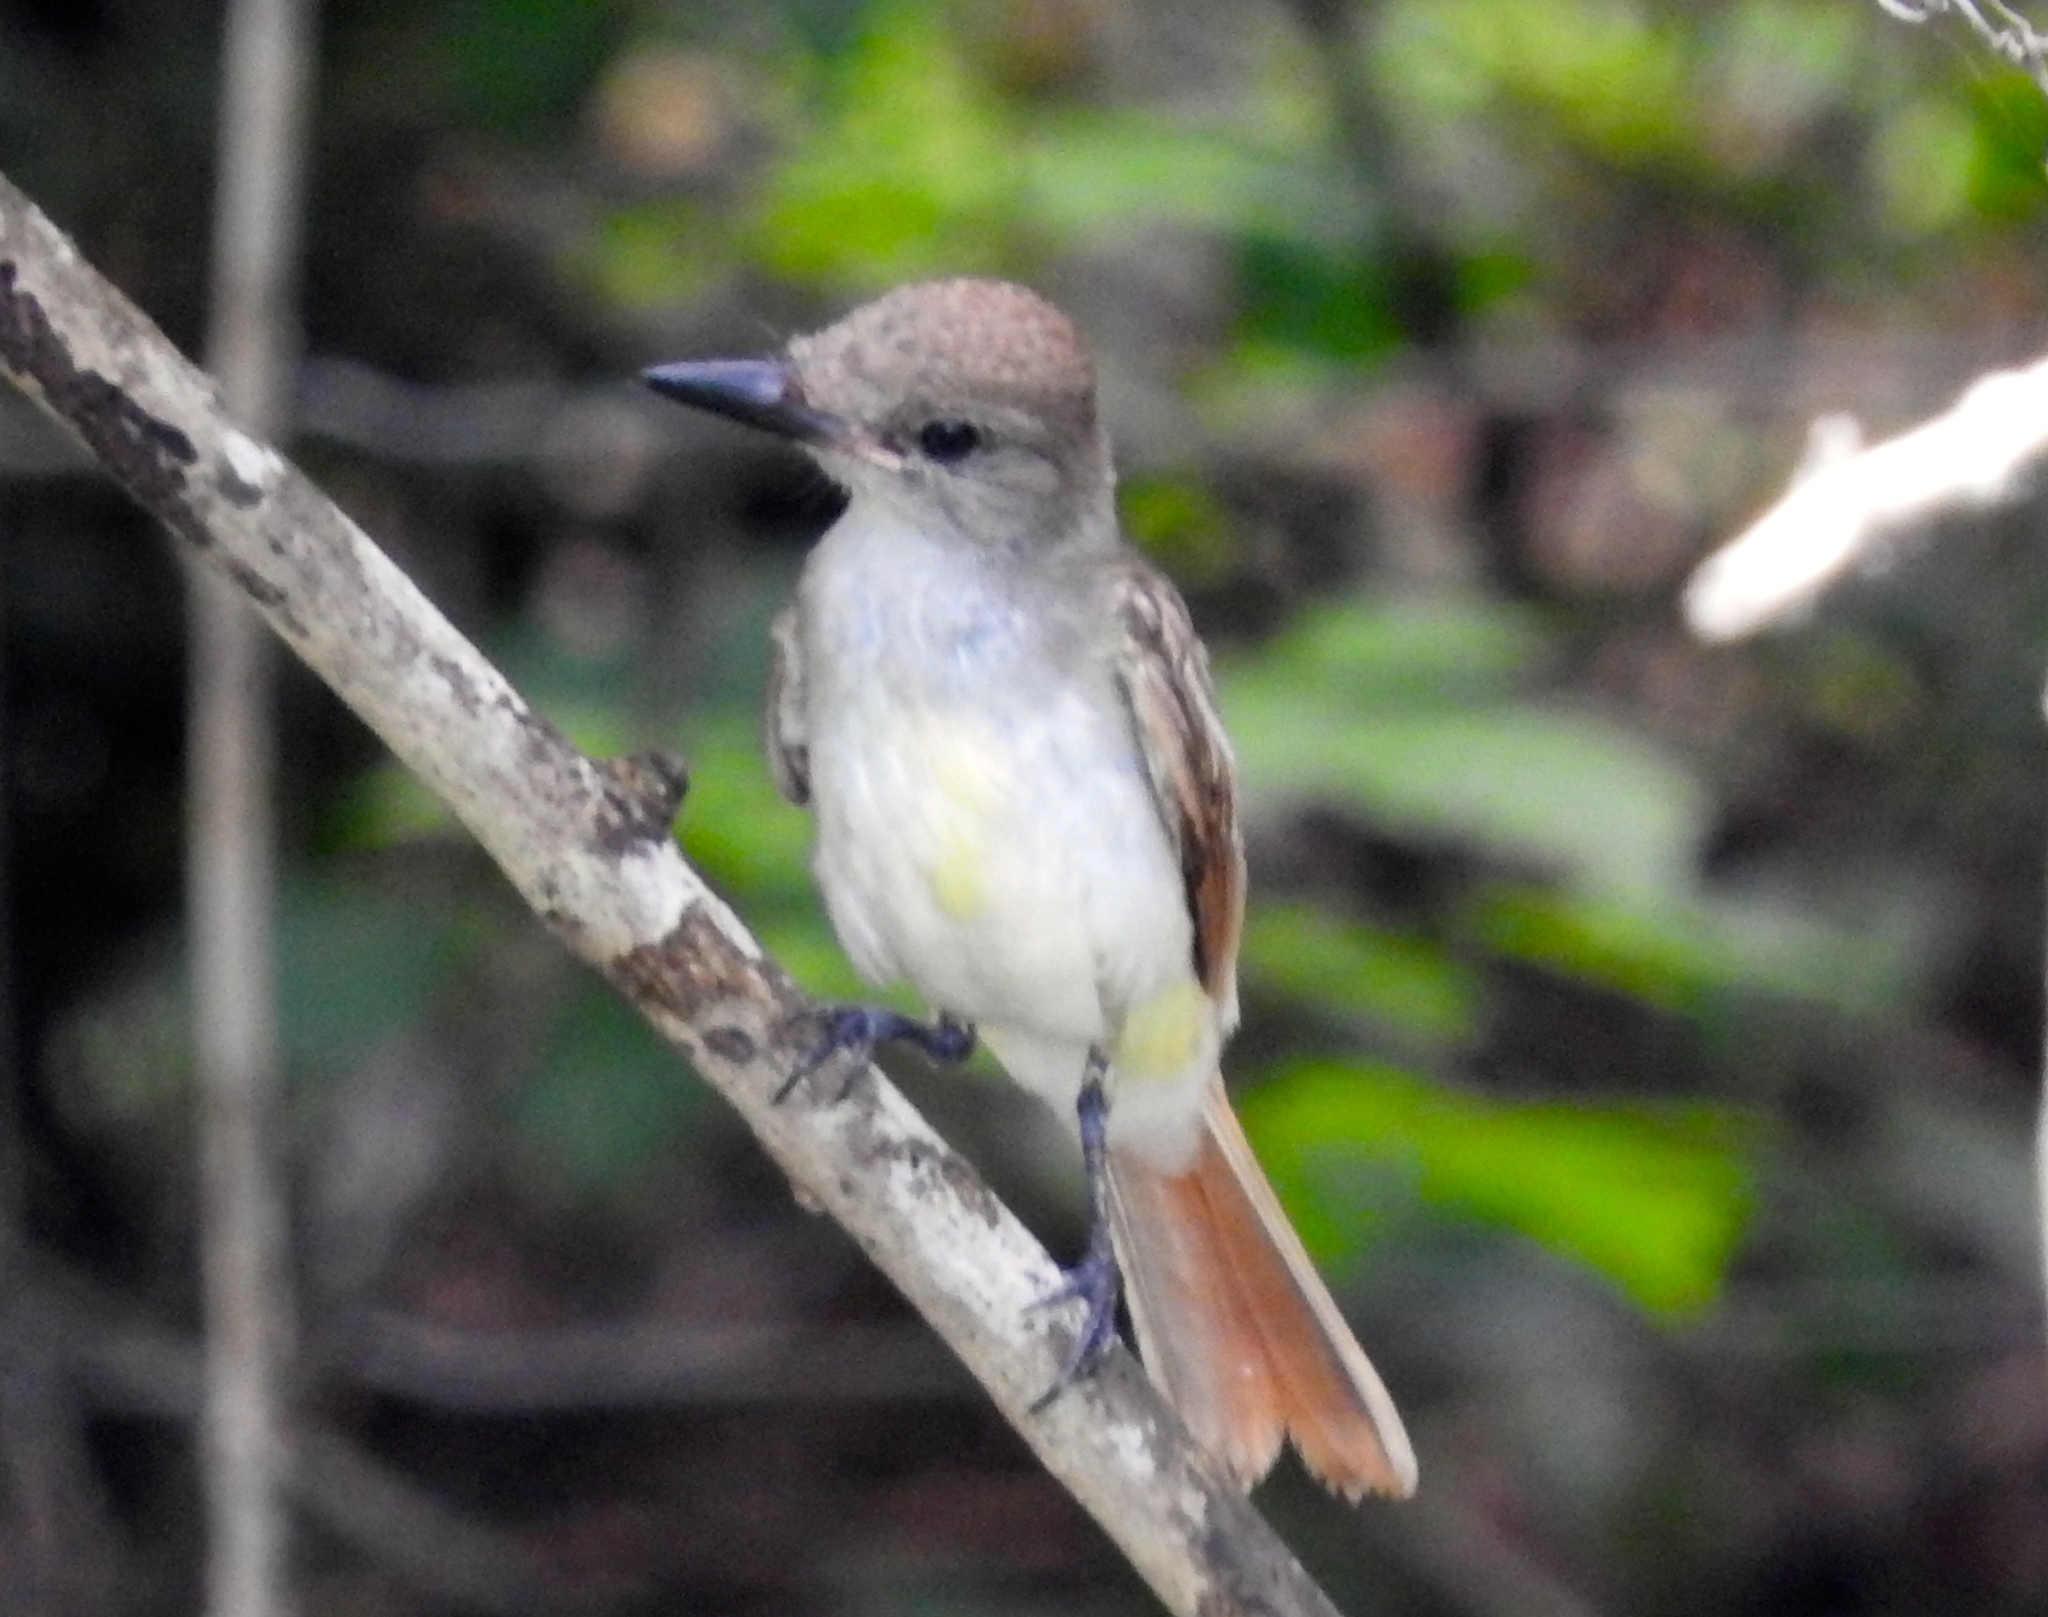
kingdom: Animalia
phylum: Chordata
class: Aves
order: Passeriformes
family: Tyrannidae
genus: Myiarchus
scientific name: Myiarchus tyrannulus
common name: Brown-crested flycatcher
